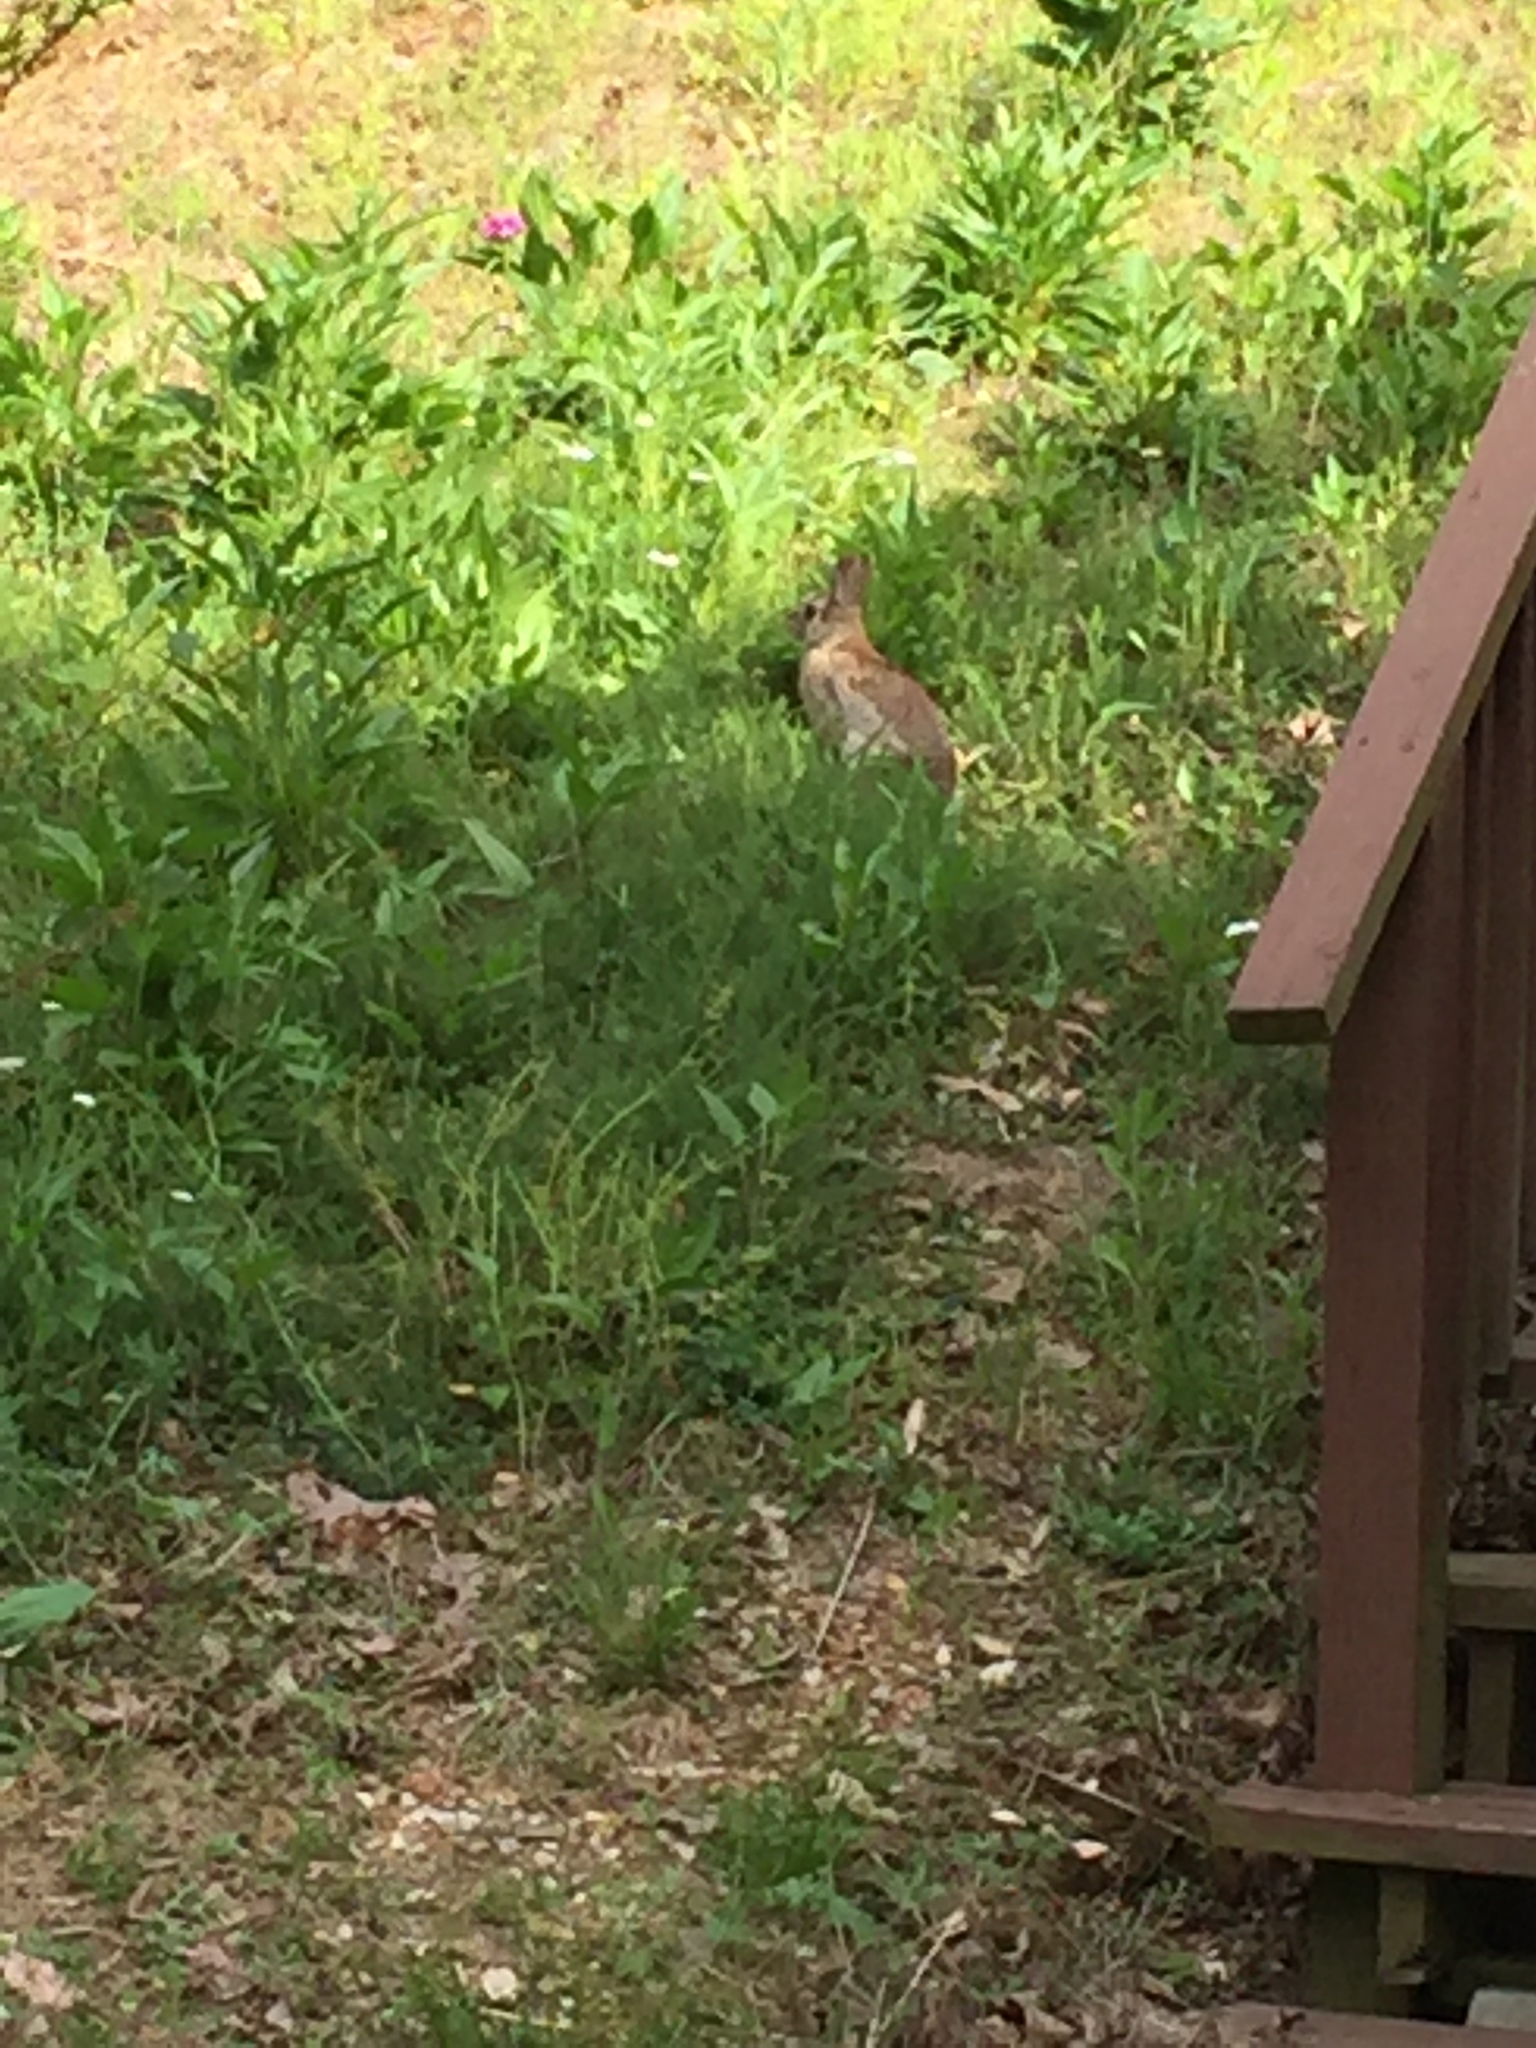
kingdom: Animalia
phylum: Chordata
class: Mammalia
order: Lagomorpha
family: Leporidae
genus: Sylvilagus
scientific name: Sylvilagus floridanus
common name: Eastern cottontail
